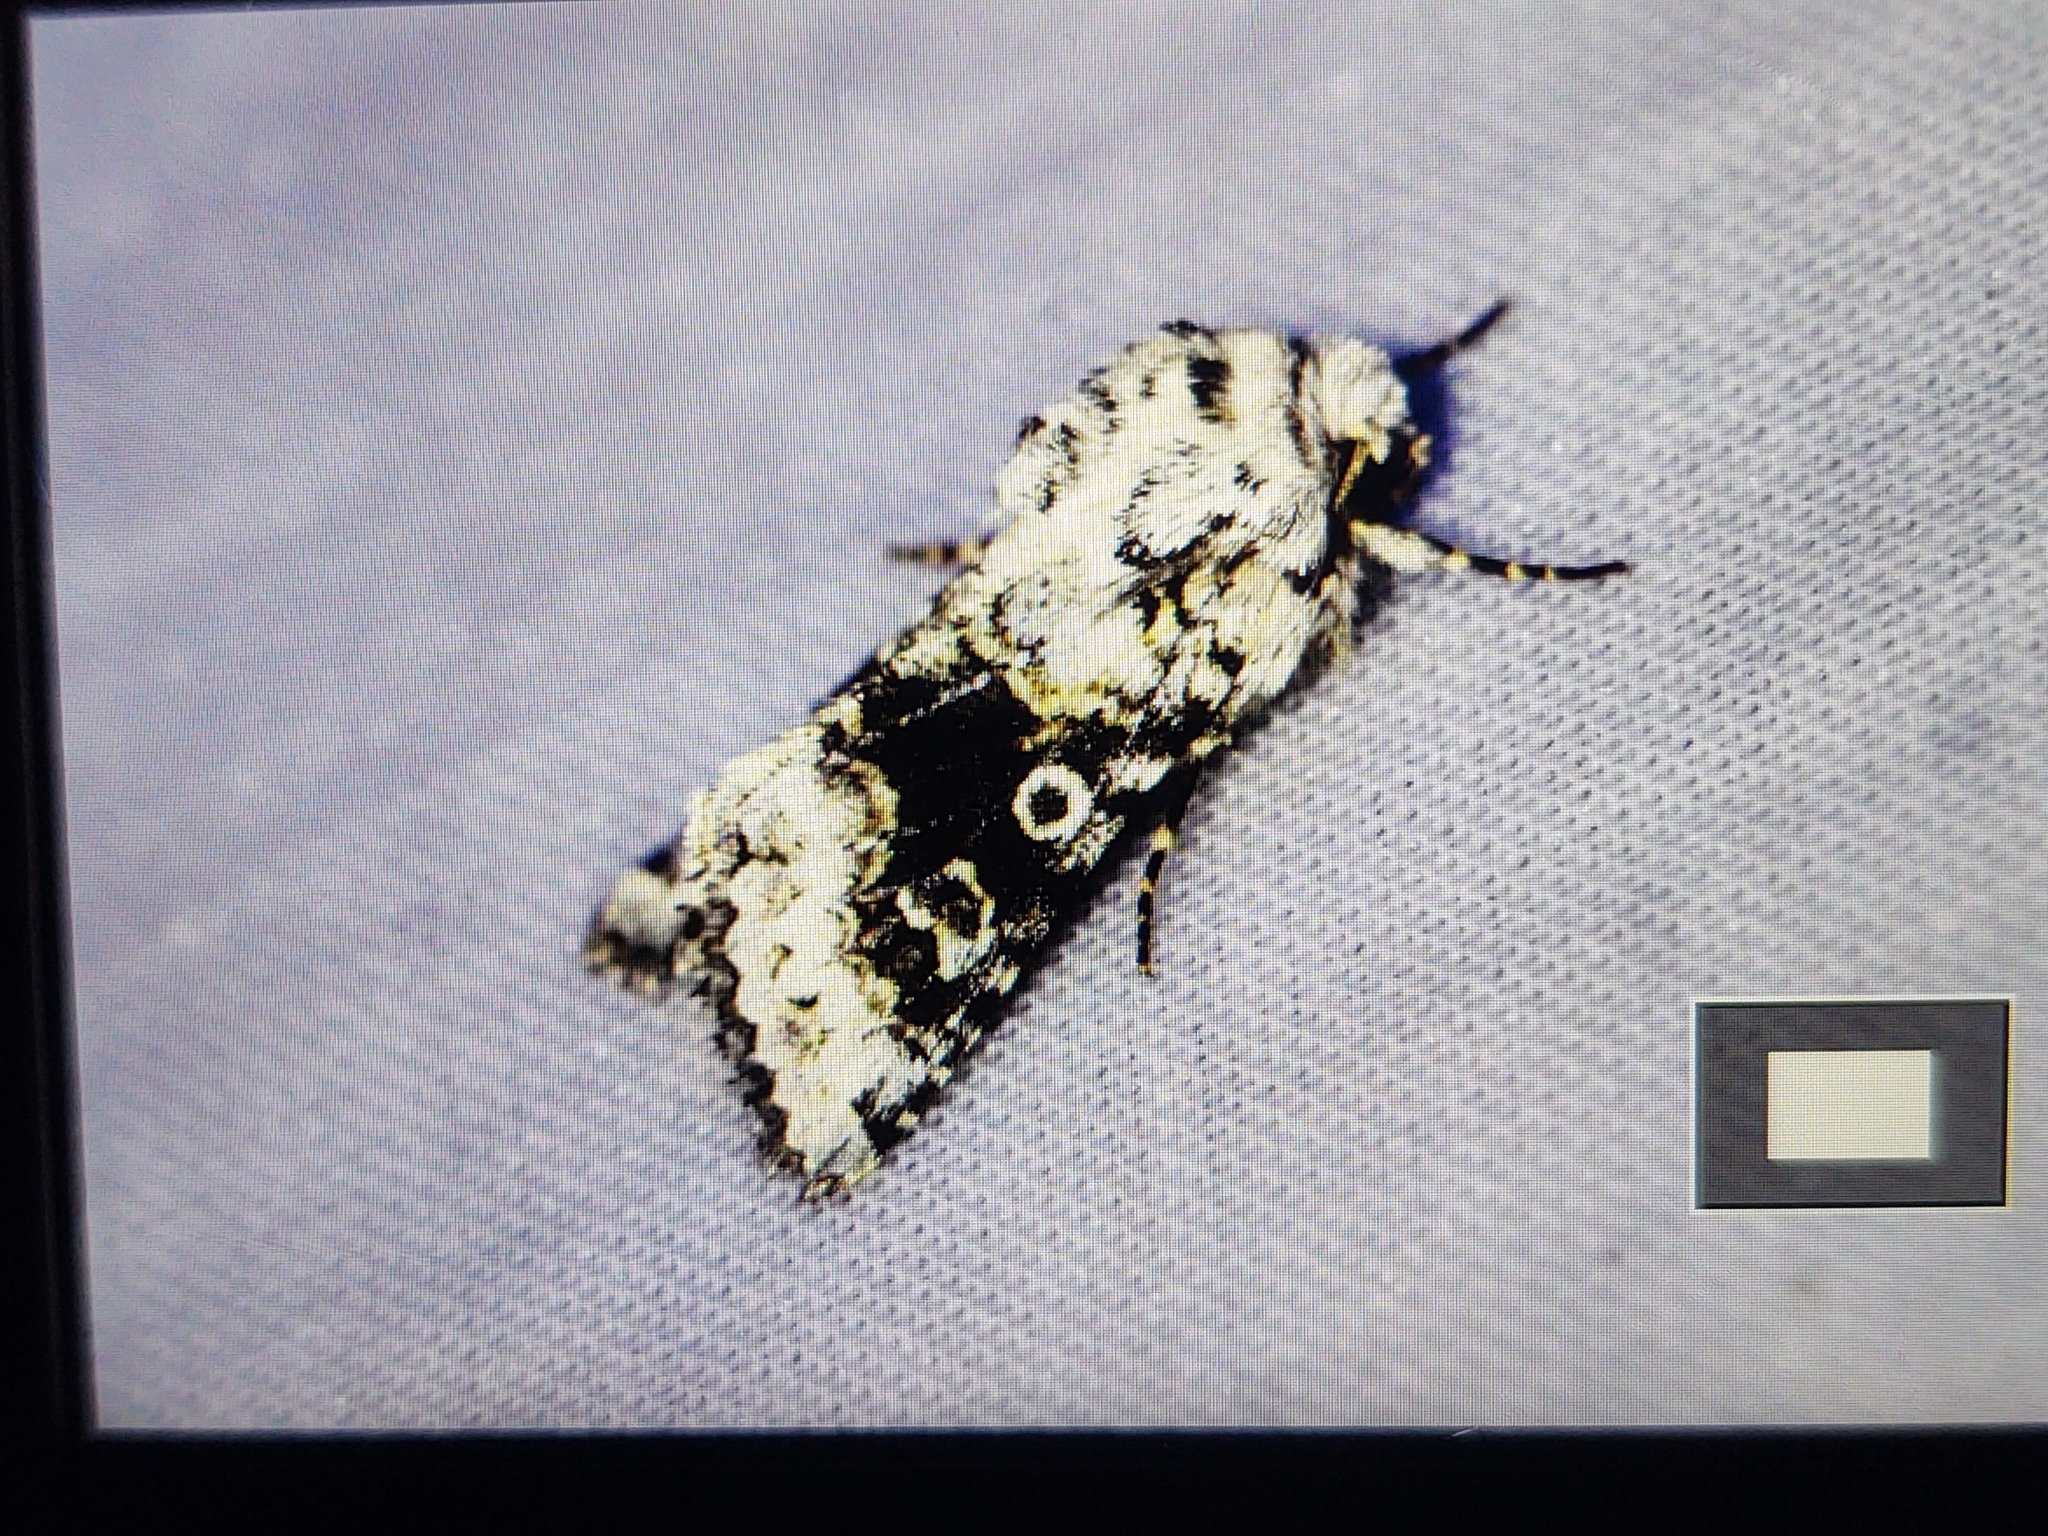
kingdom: Animalia
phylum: Arthropoda
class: Insecta
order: Lepidoptera
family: Noctuidae
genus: Hecatera
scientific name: Hecatera bicolorata
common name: Broad-barred white
